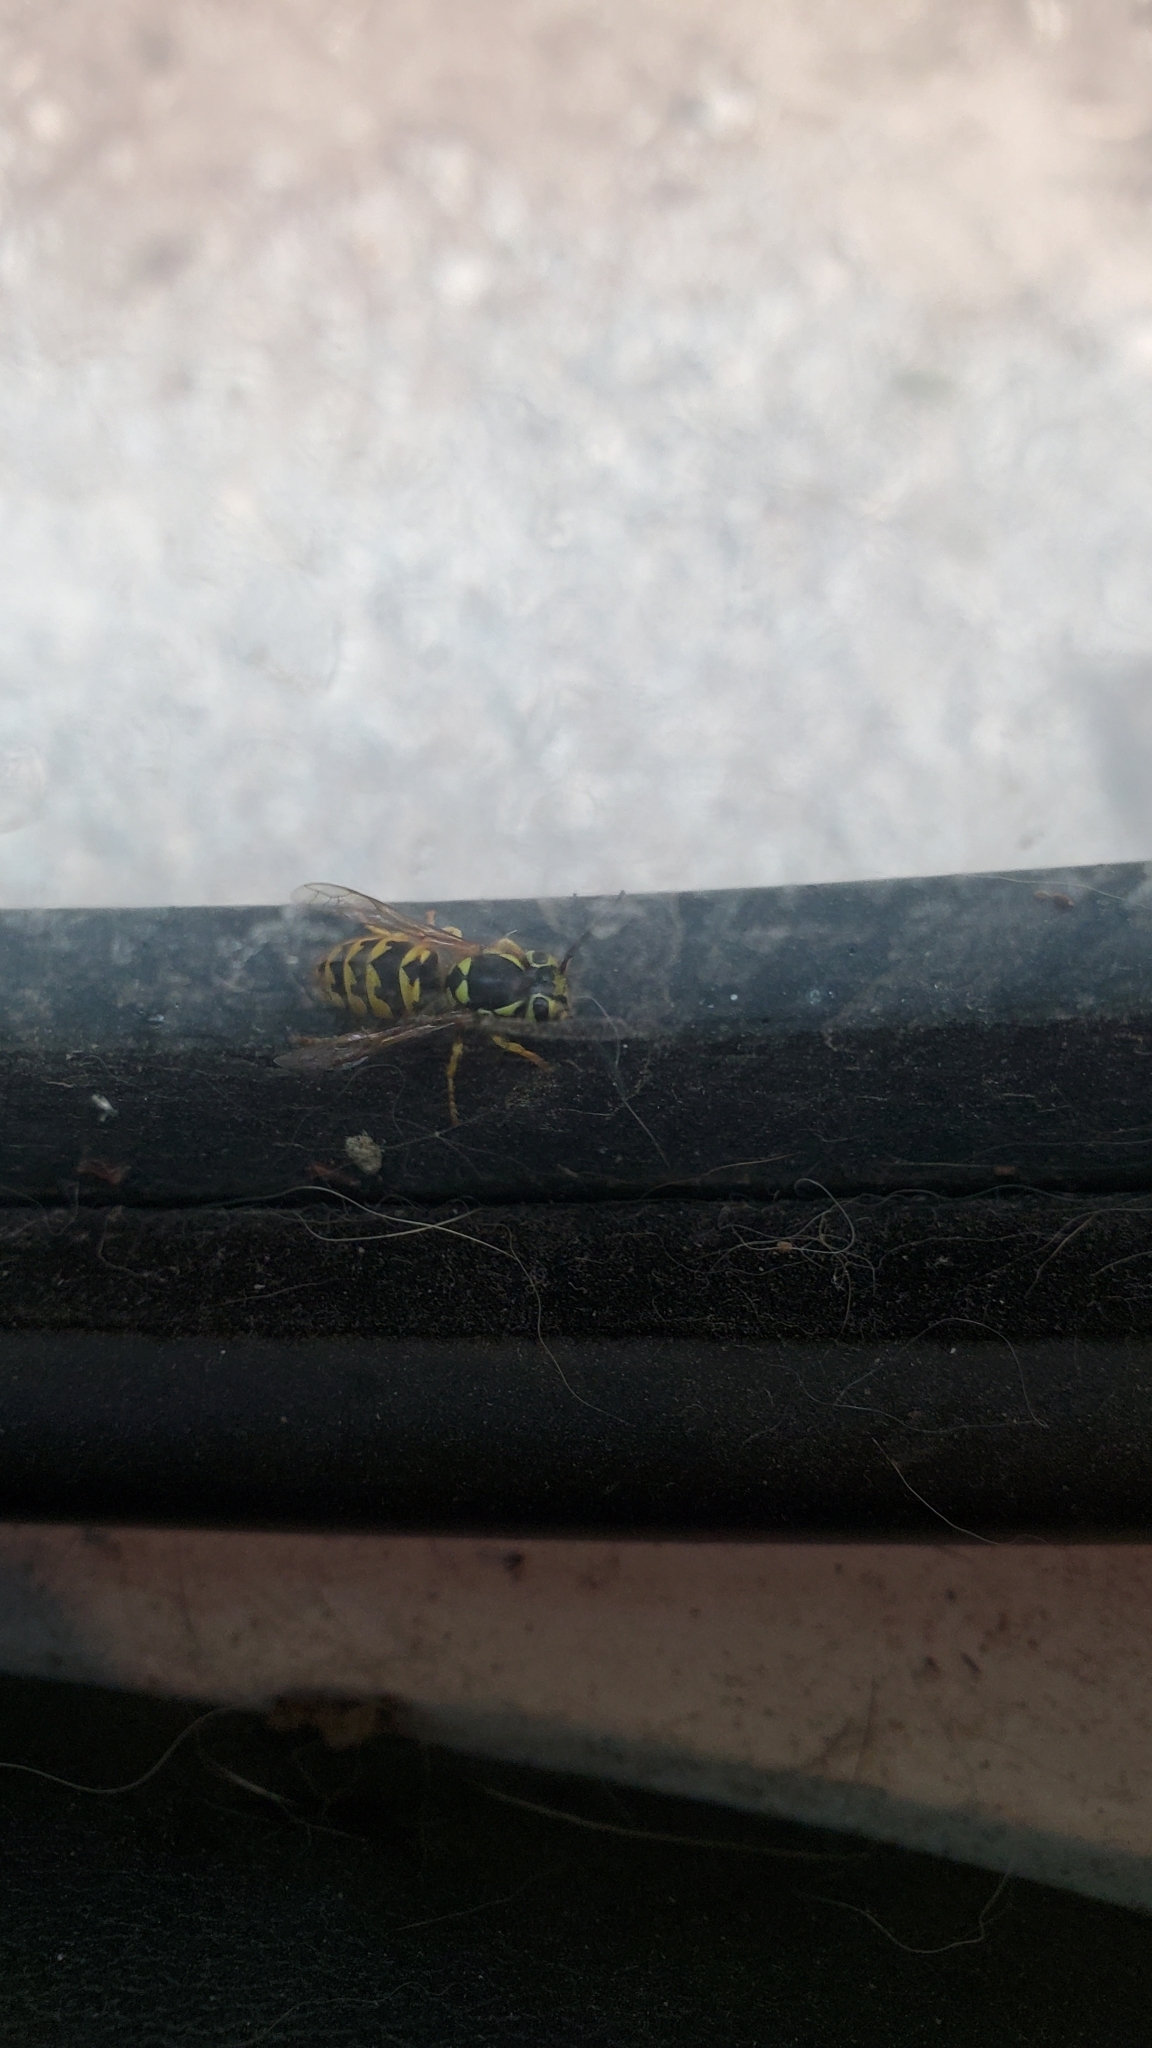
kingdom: Animalia
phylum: Arthropoda
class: Insecta
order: Hymenoptera
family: Vespidae
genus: Vespula
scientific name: Vespula pensylvanica
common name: Western yellowjacket
